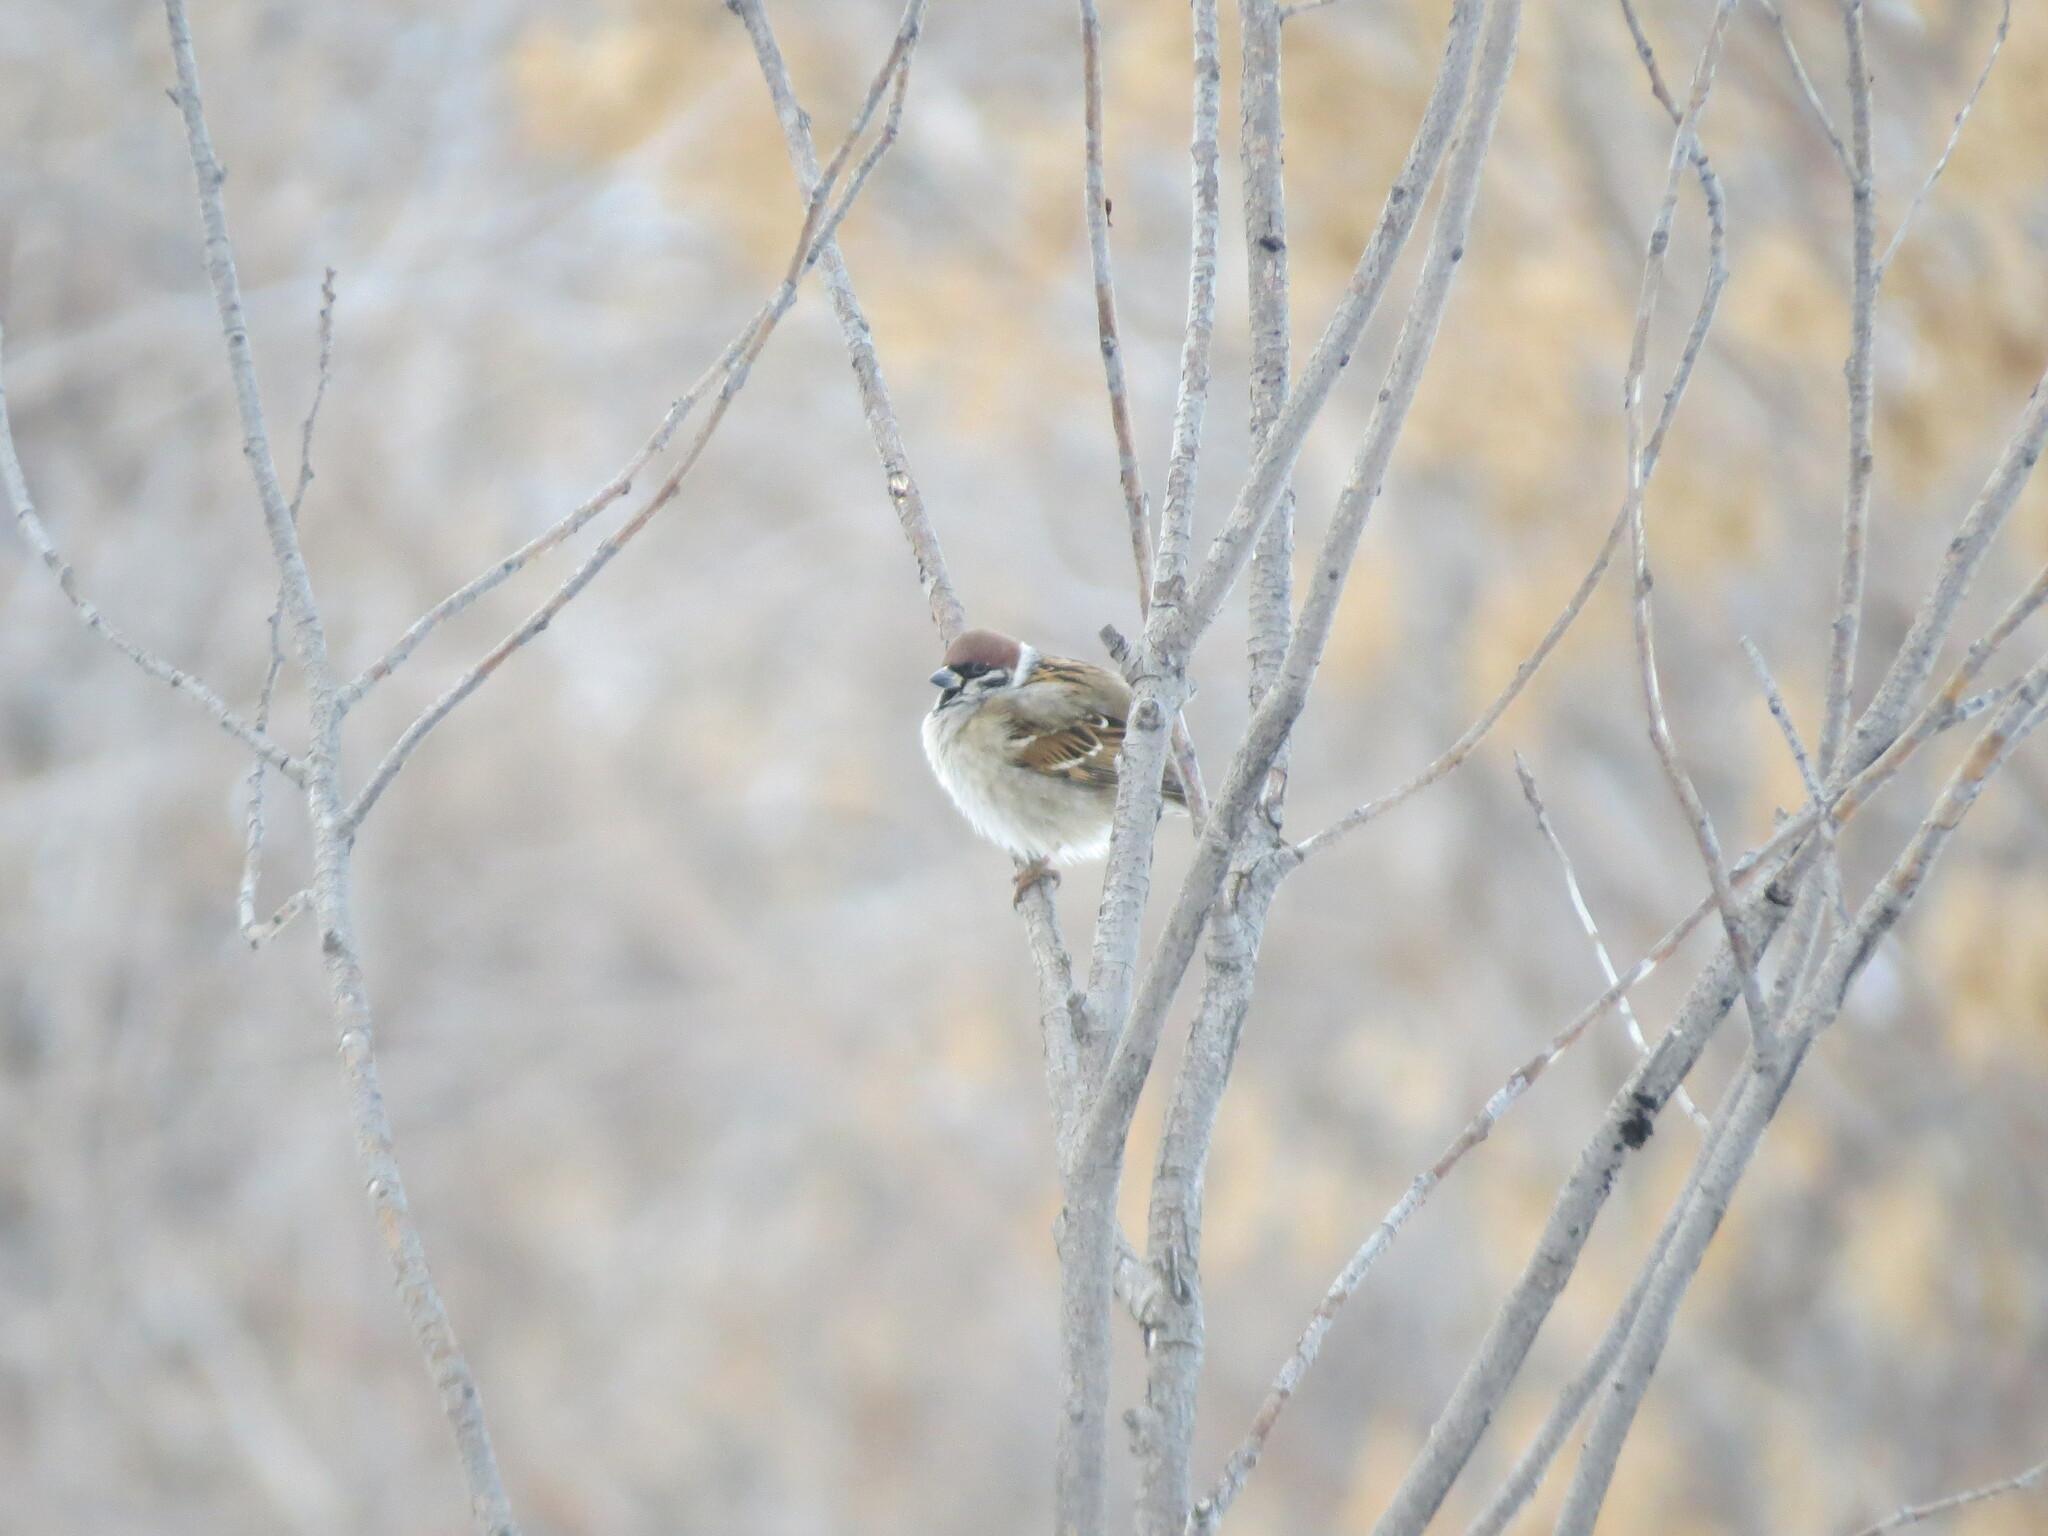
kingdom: Animalia
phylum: Chordata
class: Aves
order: Passeriformes
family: Passeridae
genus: Passer
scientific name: Passer montanus
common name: Eurasian tree sparrow
